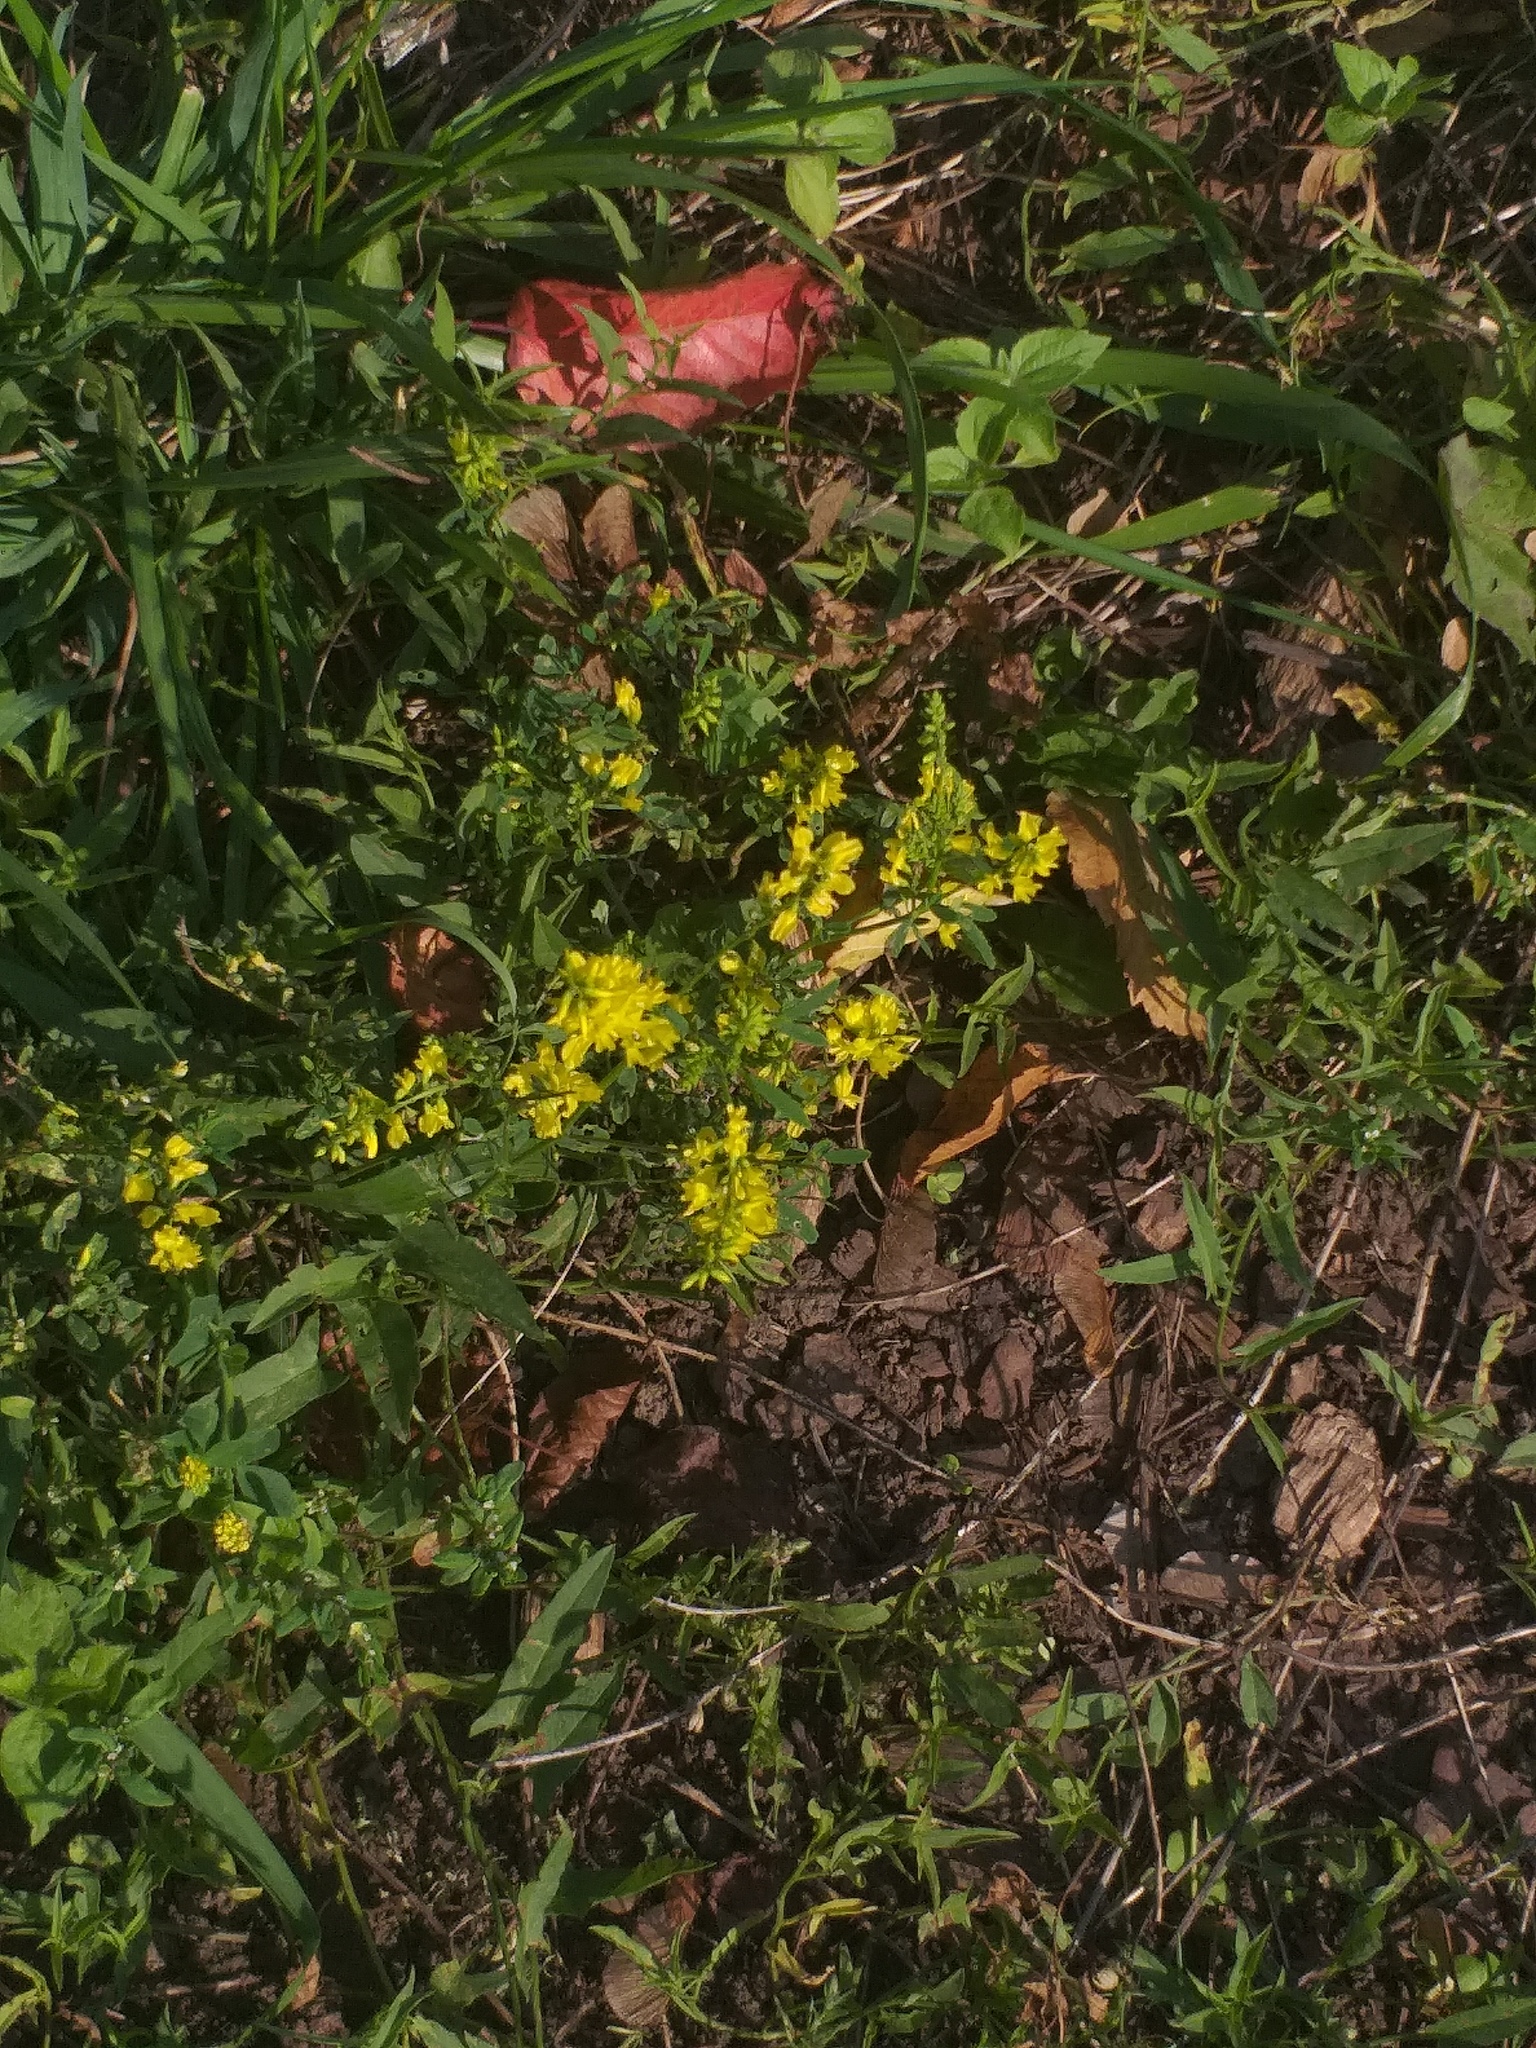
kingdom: Plantae
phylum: Tracheophyta
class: Magnoliopsida
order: Fabales
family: Fabaceae
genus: Melilotus
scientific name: Melilotus officinalis
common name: Sweetclover
